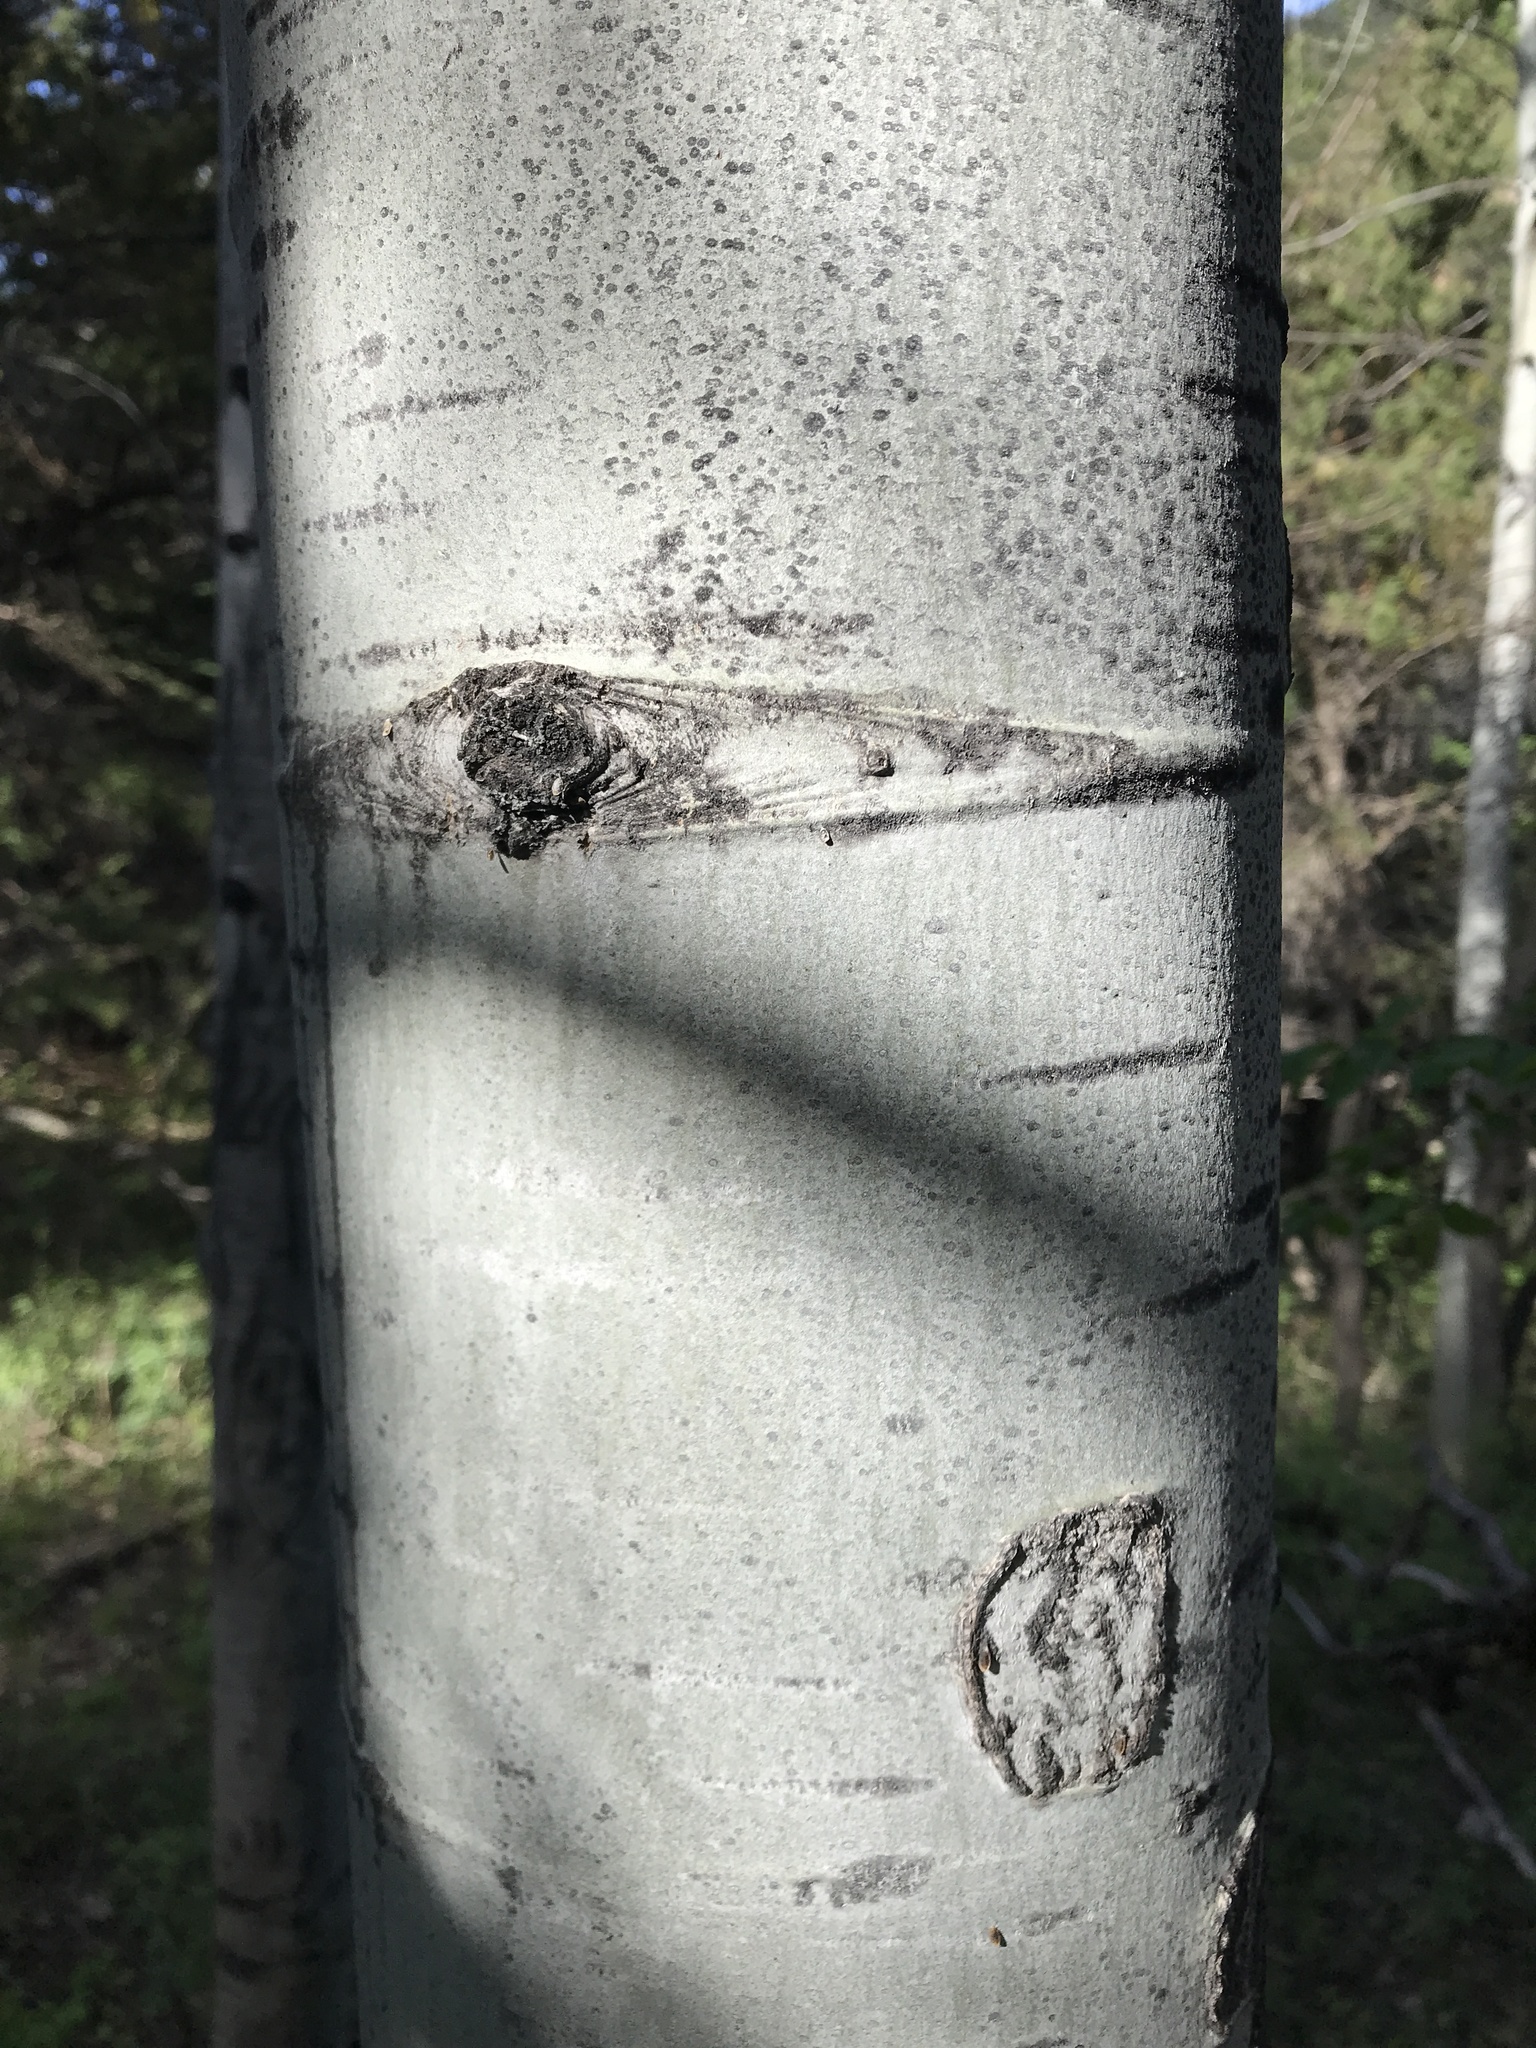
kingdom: Plantae
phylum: Tracheophyta
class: Magnoliopsida
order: Malpighiales
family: Salicaceae
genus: Populus
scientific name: Populus tremuloides
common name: Quaking aspen
